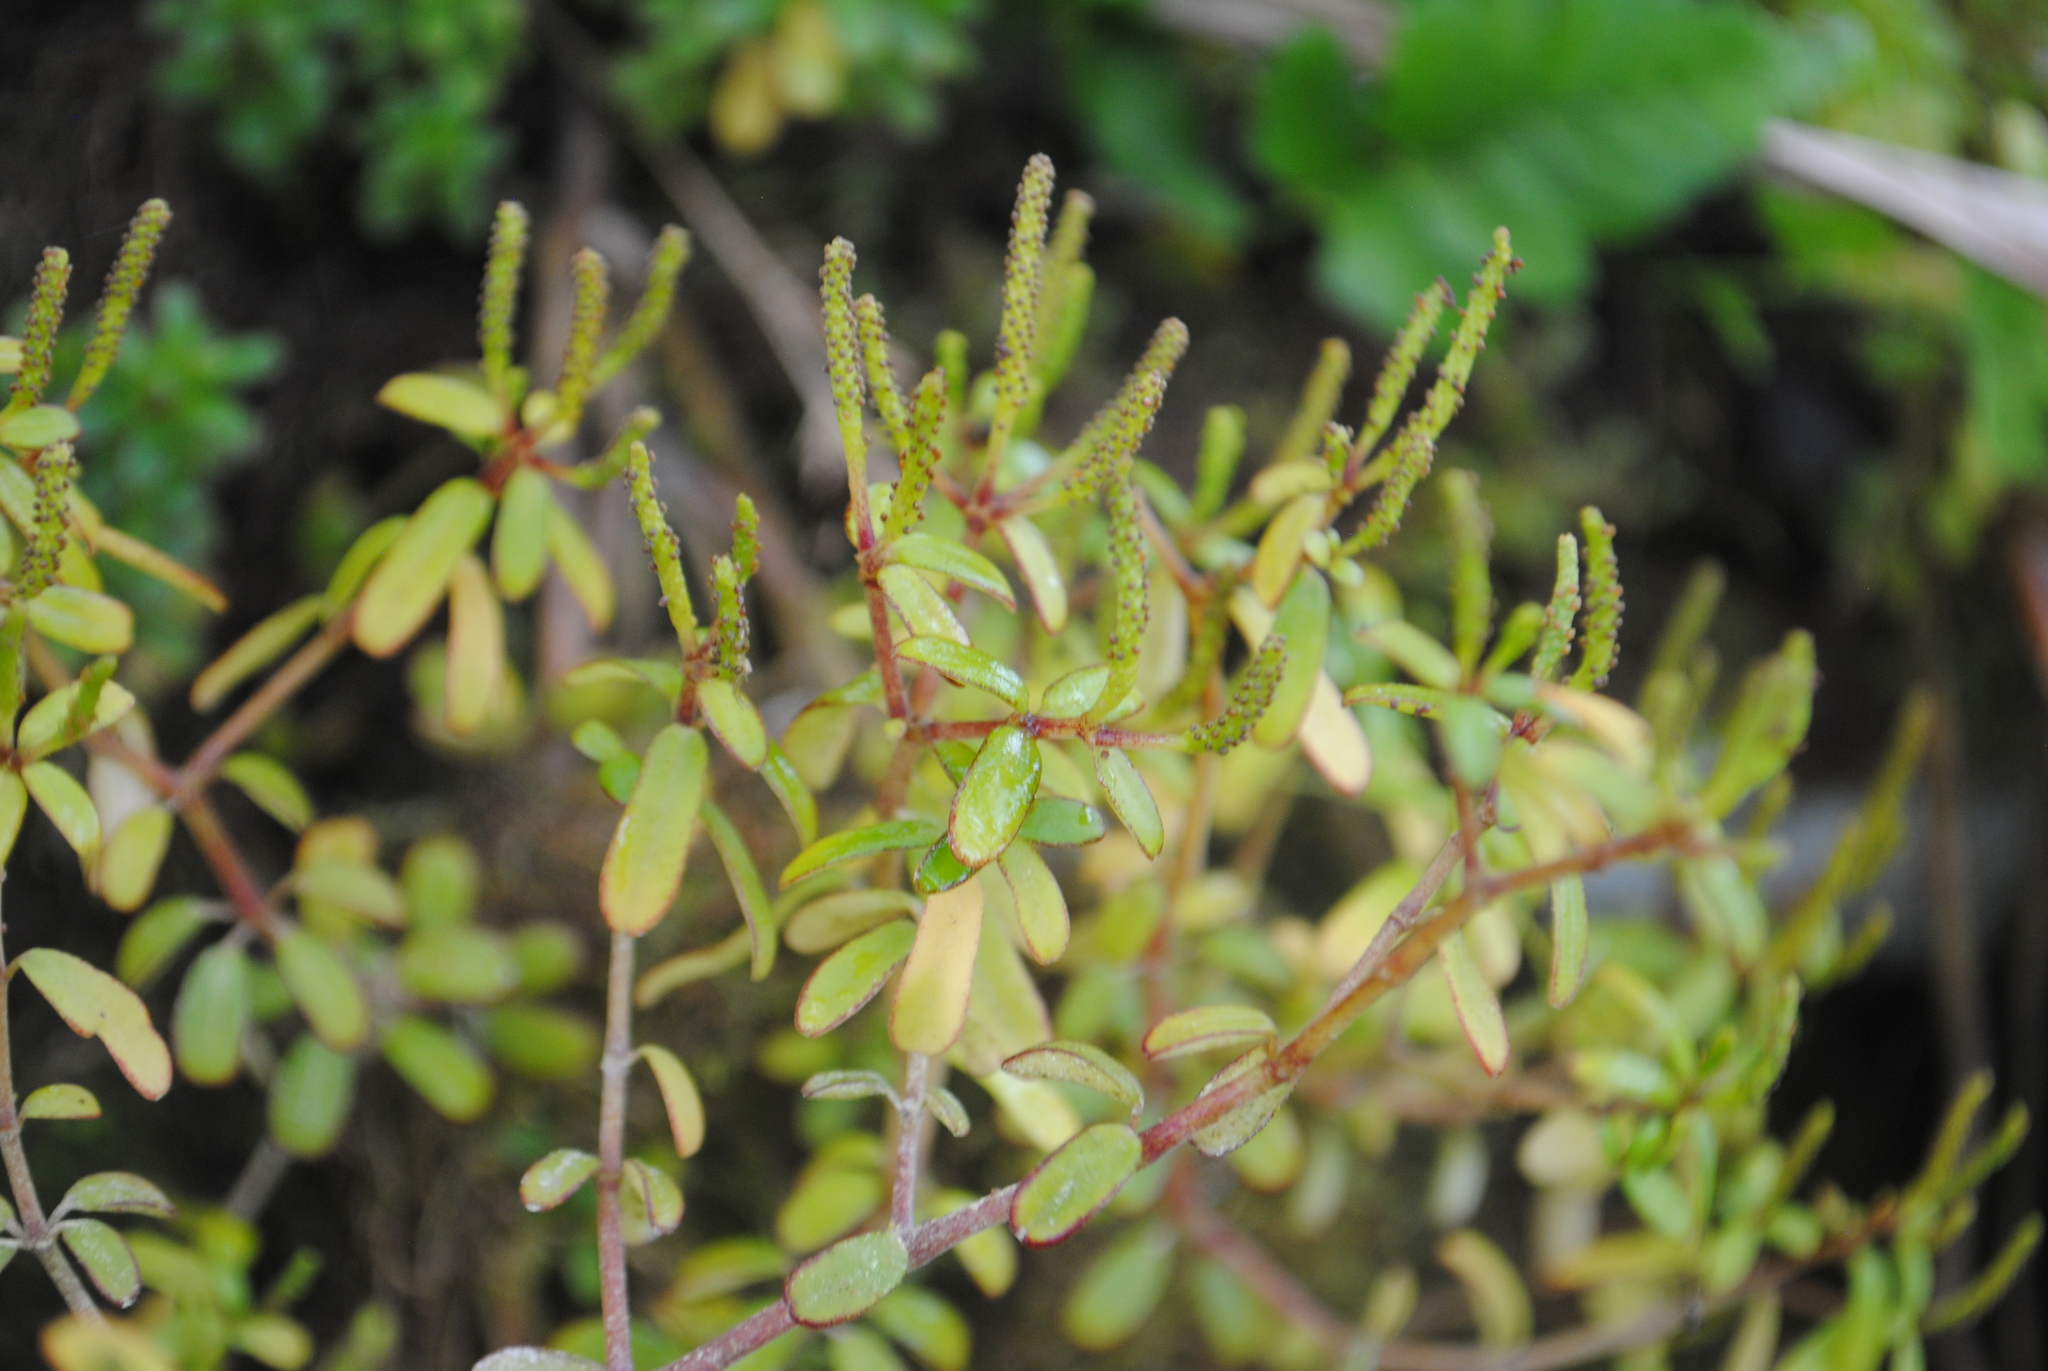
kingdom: Plantae
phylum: Tracheophyta
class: Magnoliopsida
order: Piperales
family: Piperaceae
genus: Peperomia
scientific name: Peperomia inaequalifolia
